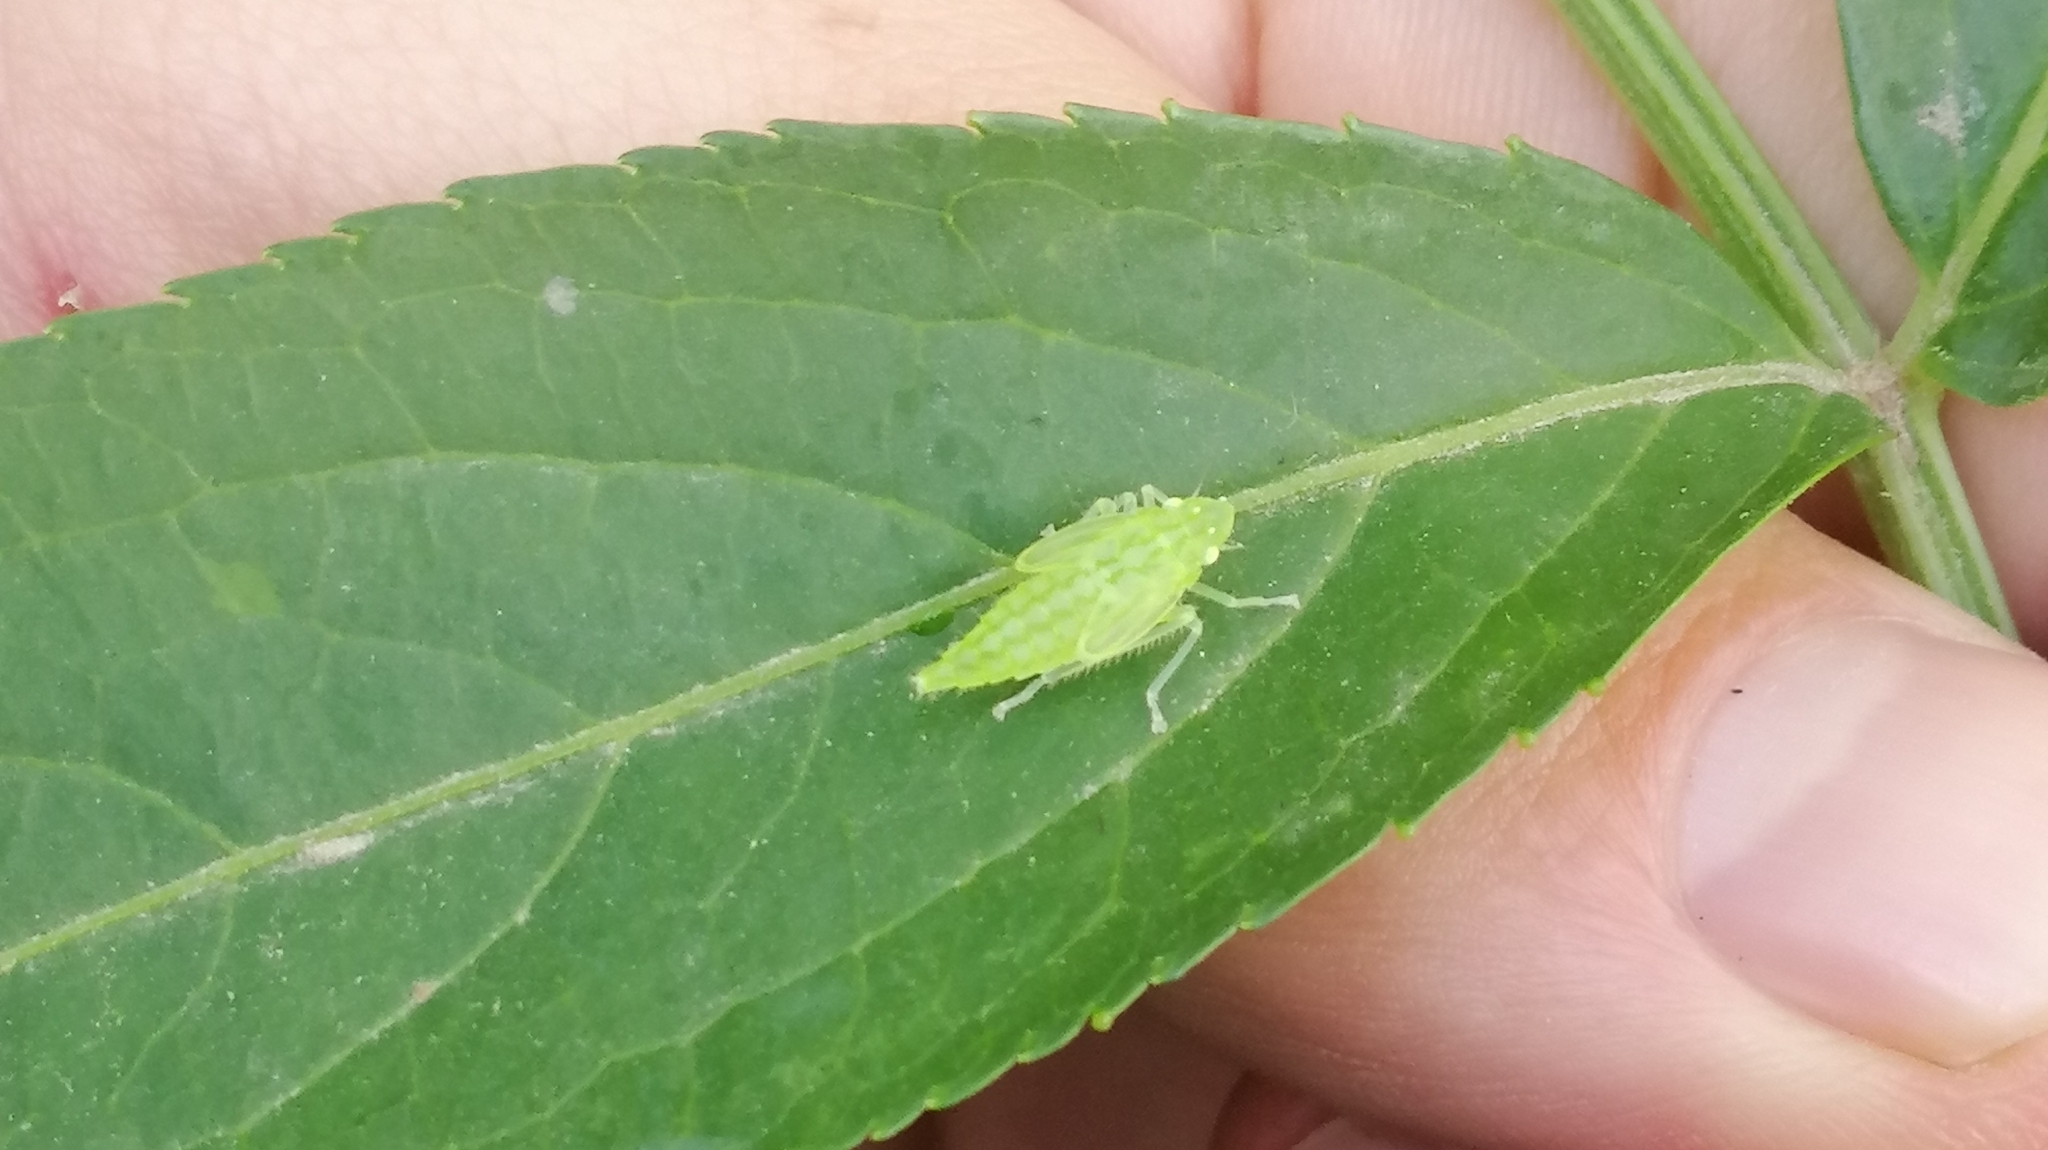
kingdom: Animalia
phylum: Arthropoda
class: Insecta
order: Hemiptera
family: Cicadellidae
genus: Onega
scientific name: Onega bracteata
